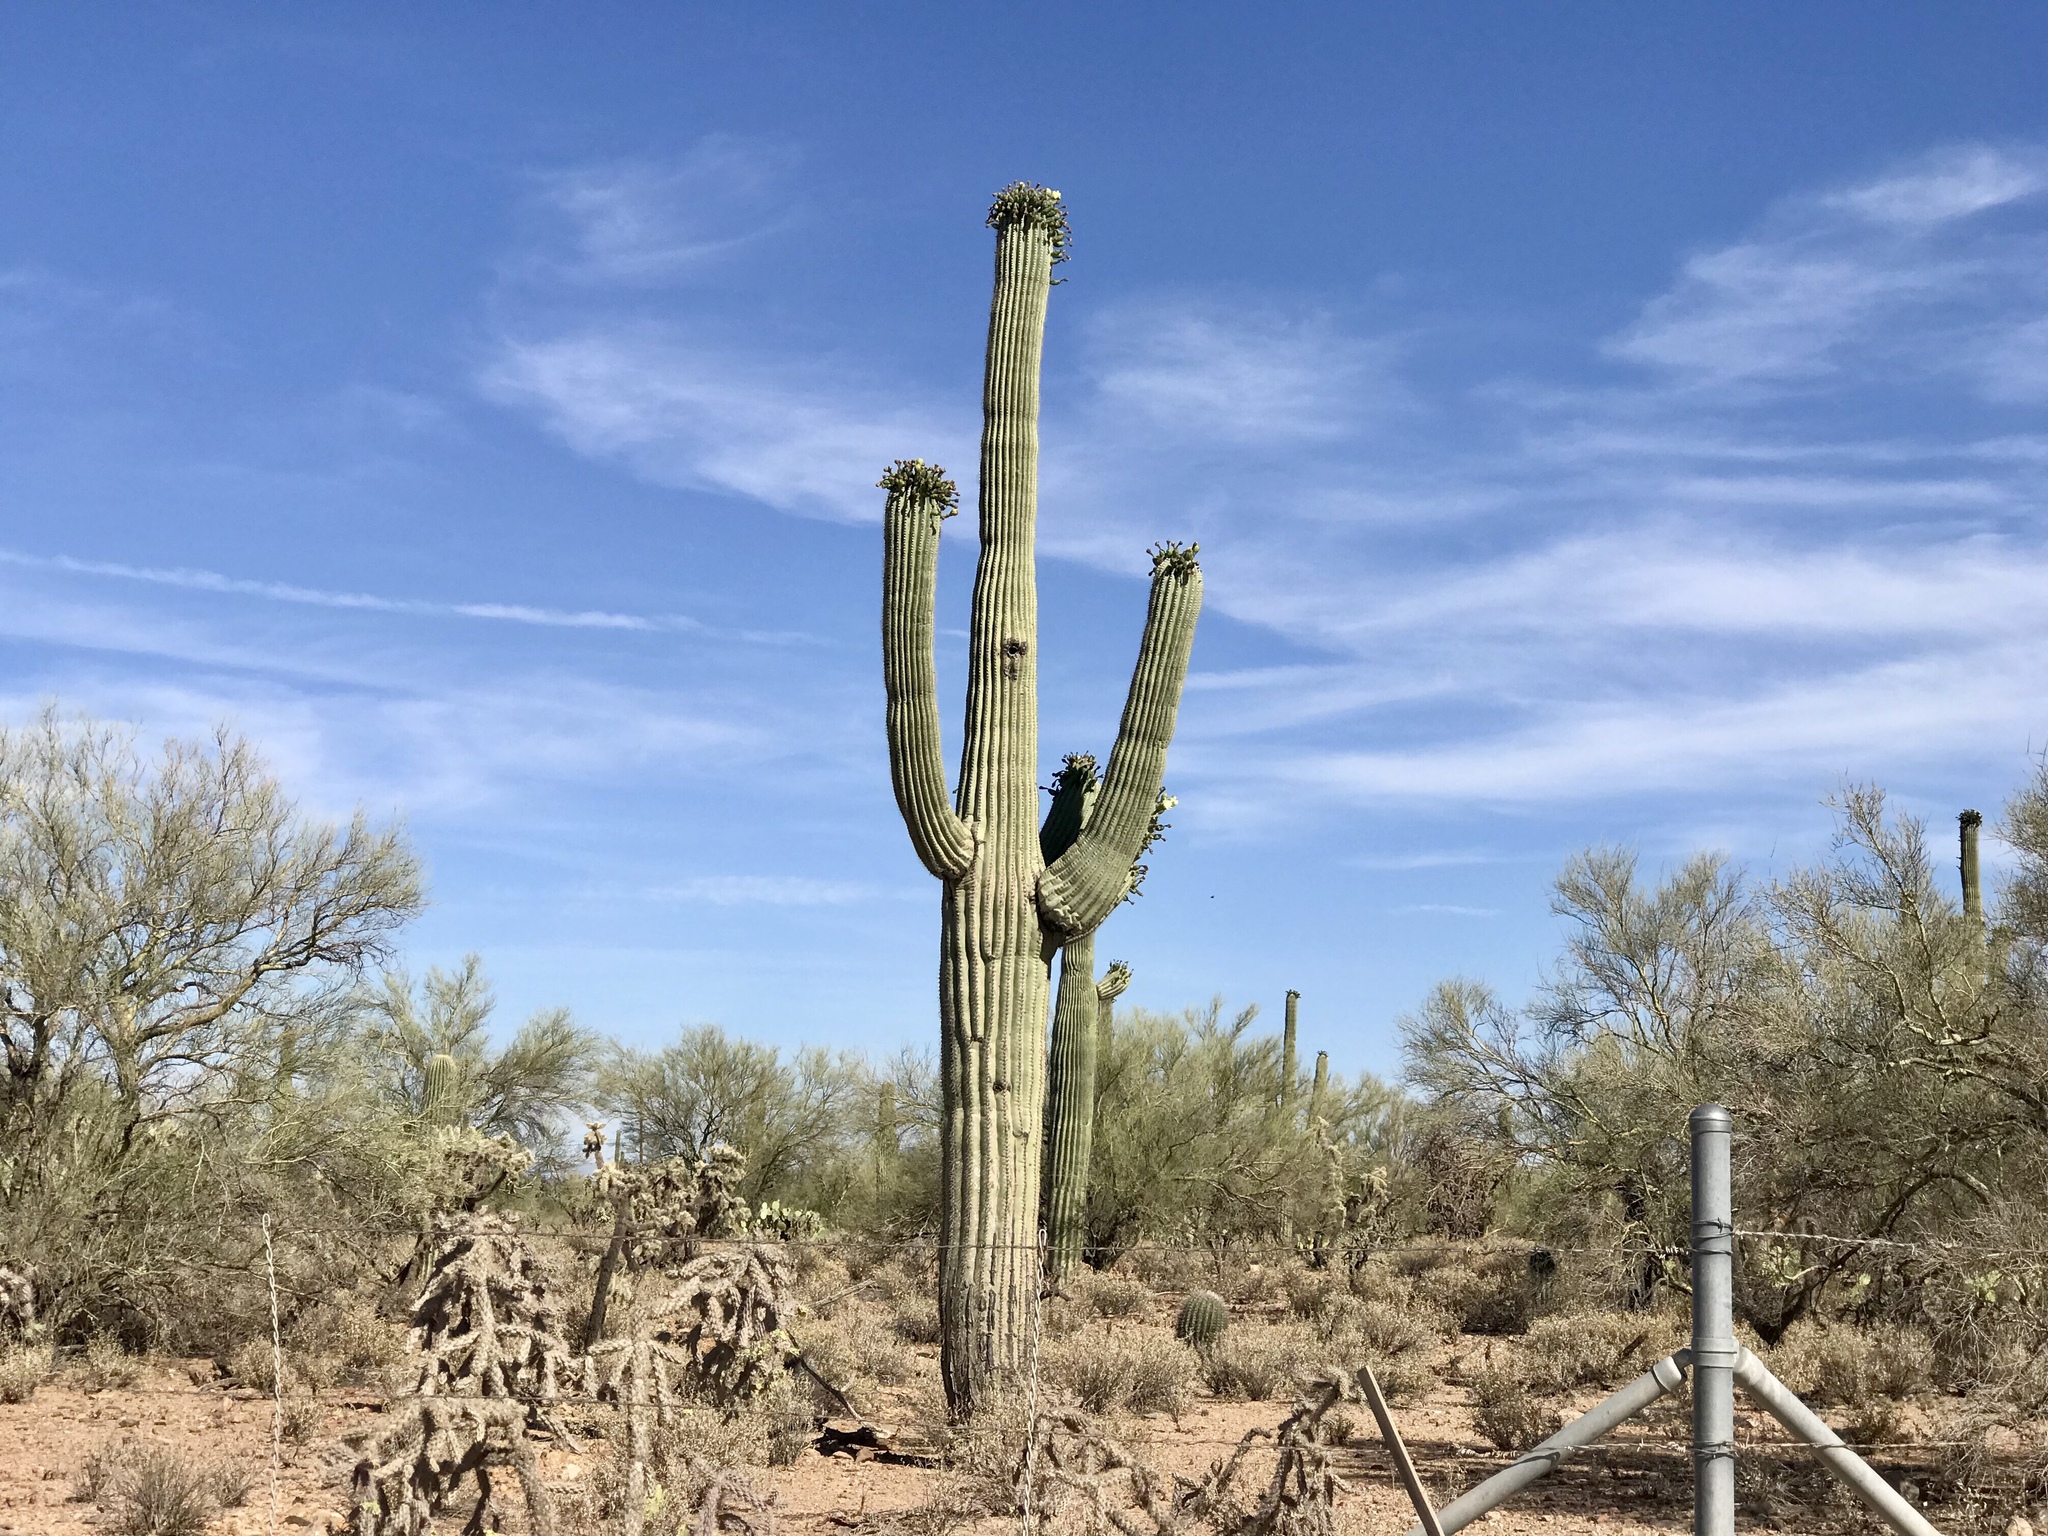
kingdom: Plantae
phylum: Tracheophyta
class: Magnoliopsida
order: Caryophyllales
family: Cactaceae
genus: Carnegiea
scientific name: Carnegiea gigantea
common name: Saguaro
